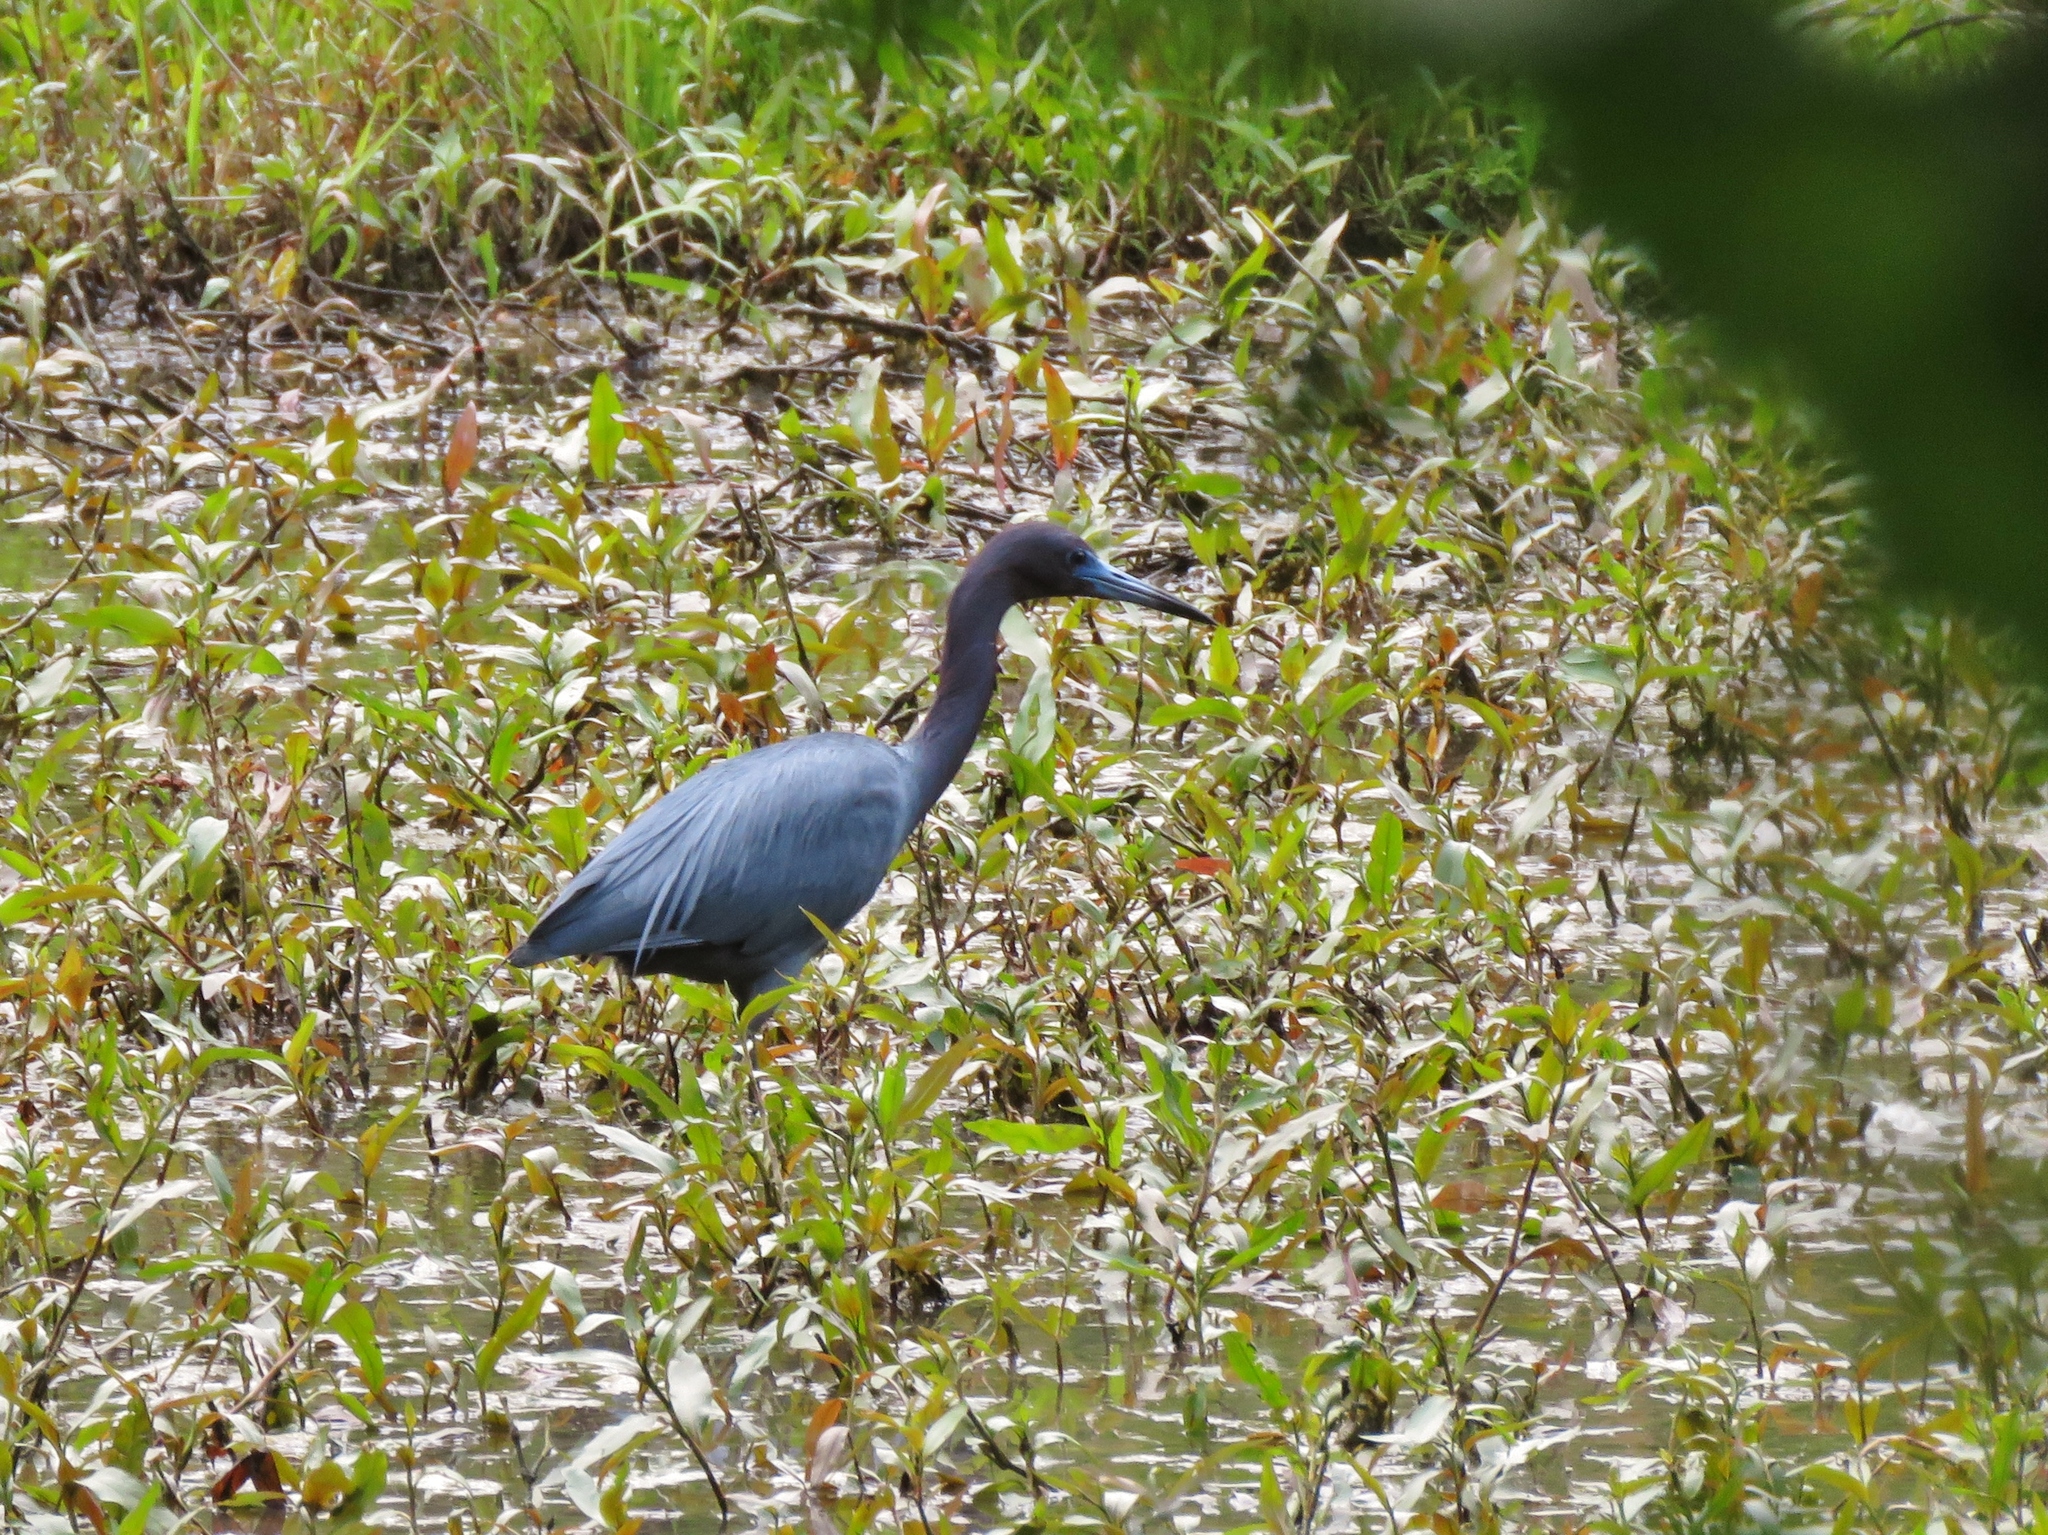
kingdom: Animalia
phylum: Chordata
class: Aves
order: Pelecaniformes
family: Ardeidae
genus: Egretta
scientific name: Egretta caerulea
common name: Little blue heron
